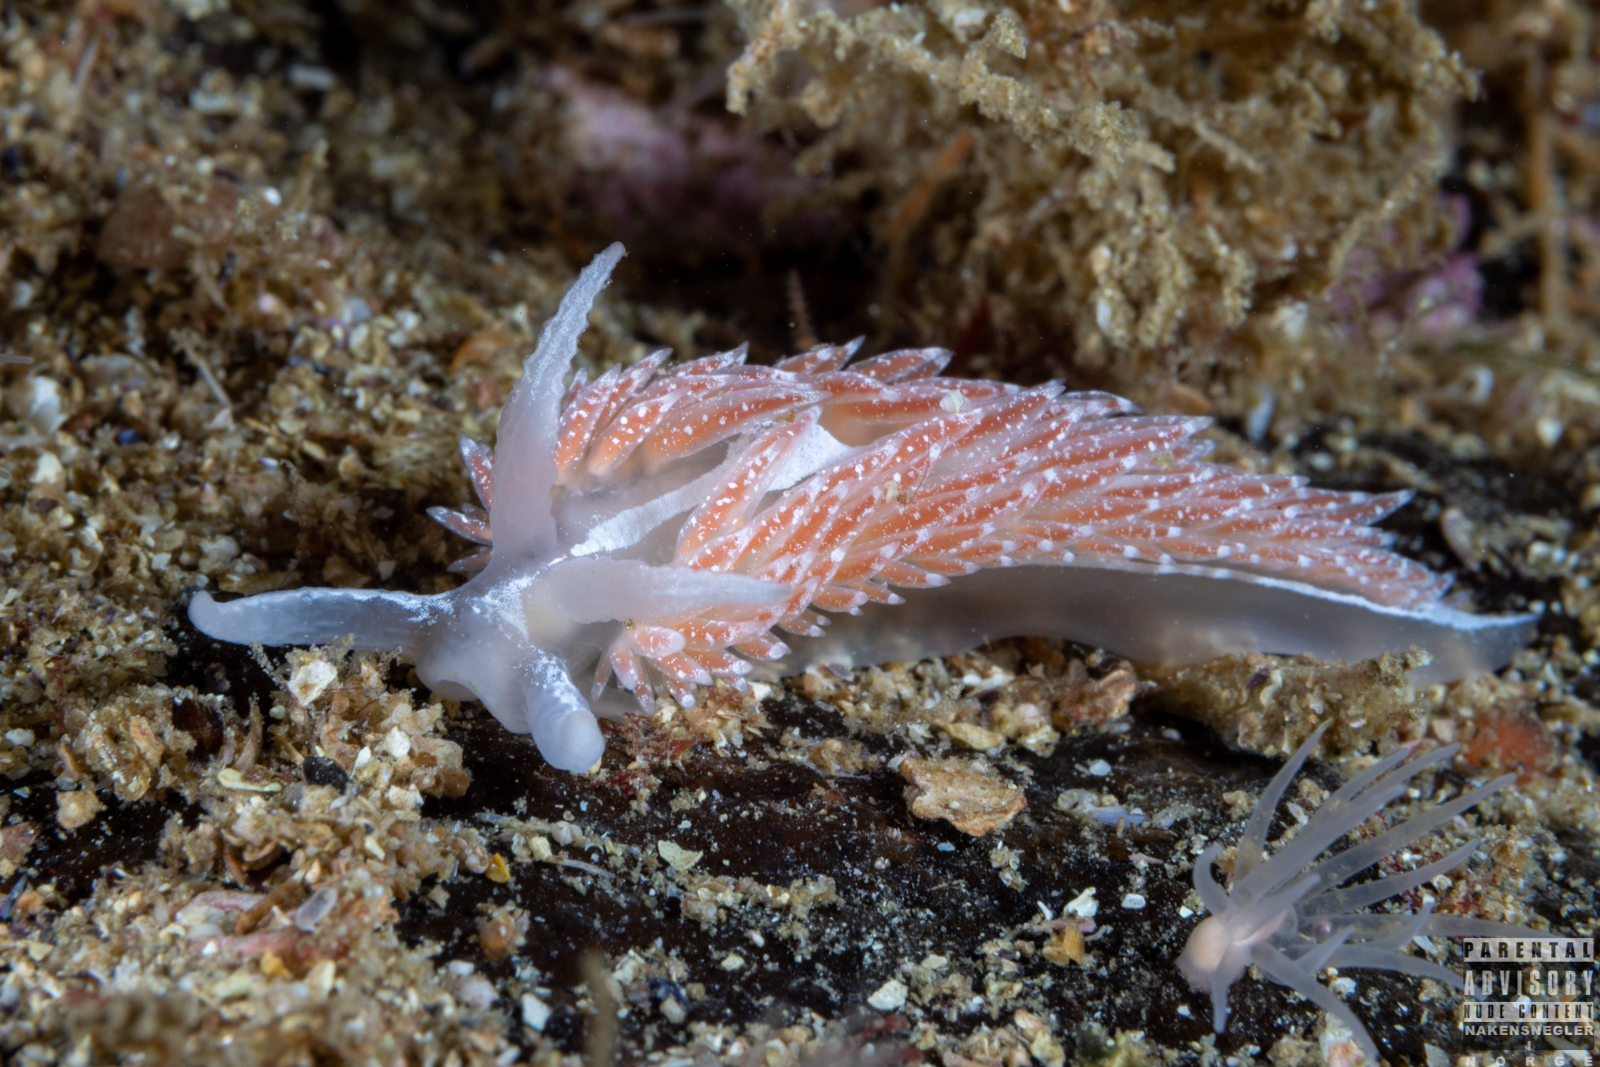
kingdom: Animalia
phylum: Mollusca
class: Gastropoda
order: Nudibranchia
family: Coryphellidae
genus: Coryphella
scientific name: Coryphella orjani
